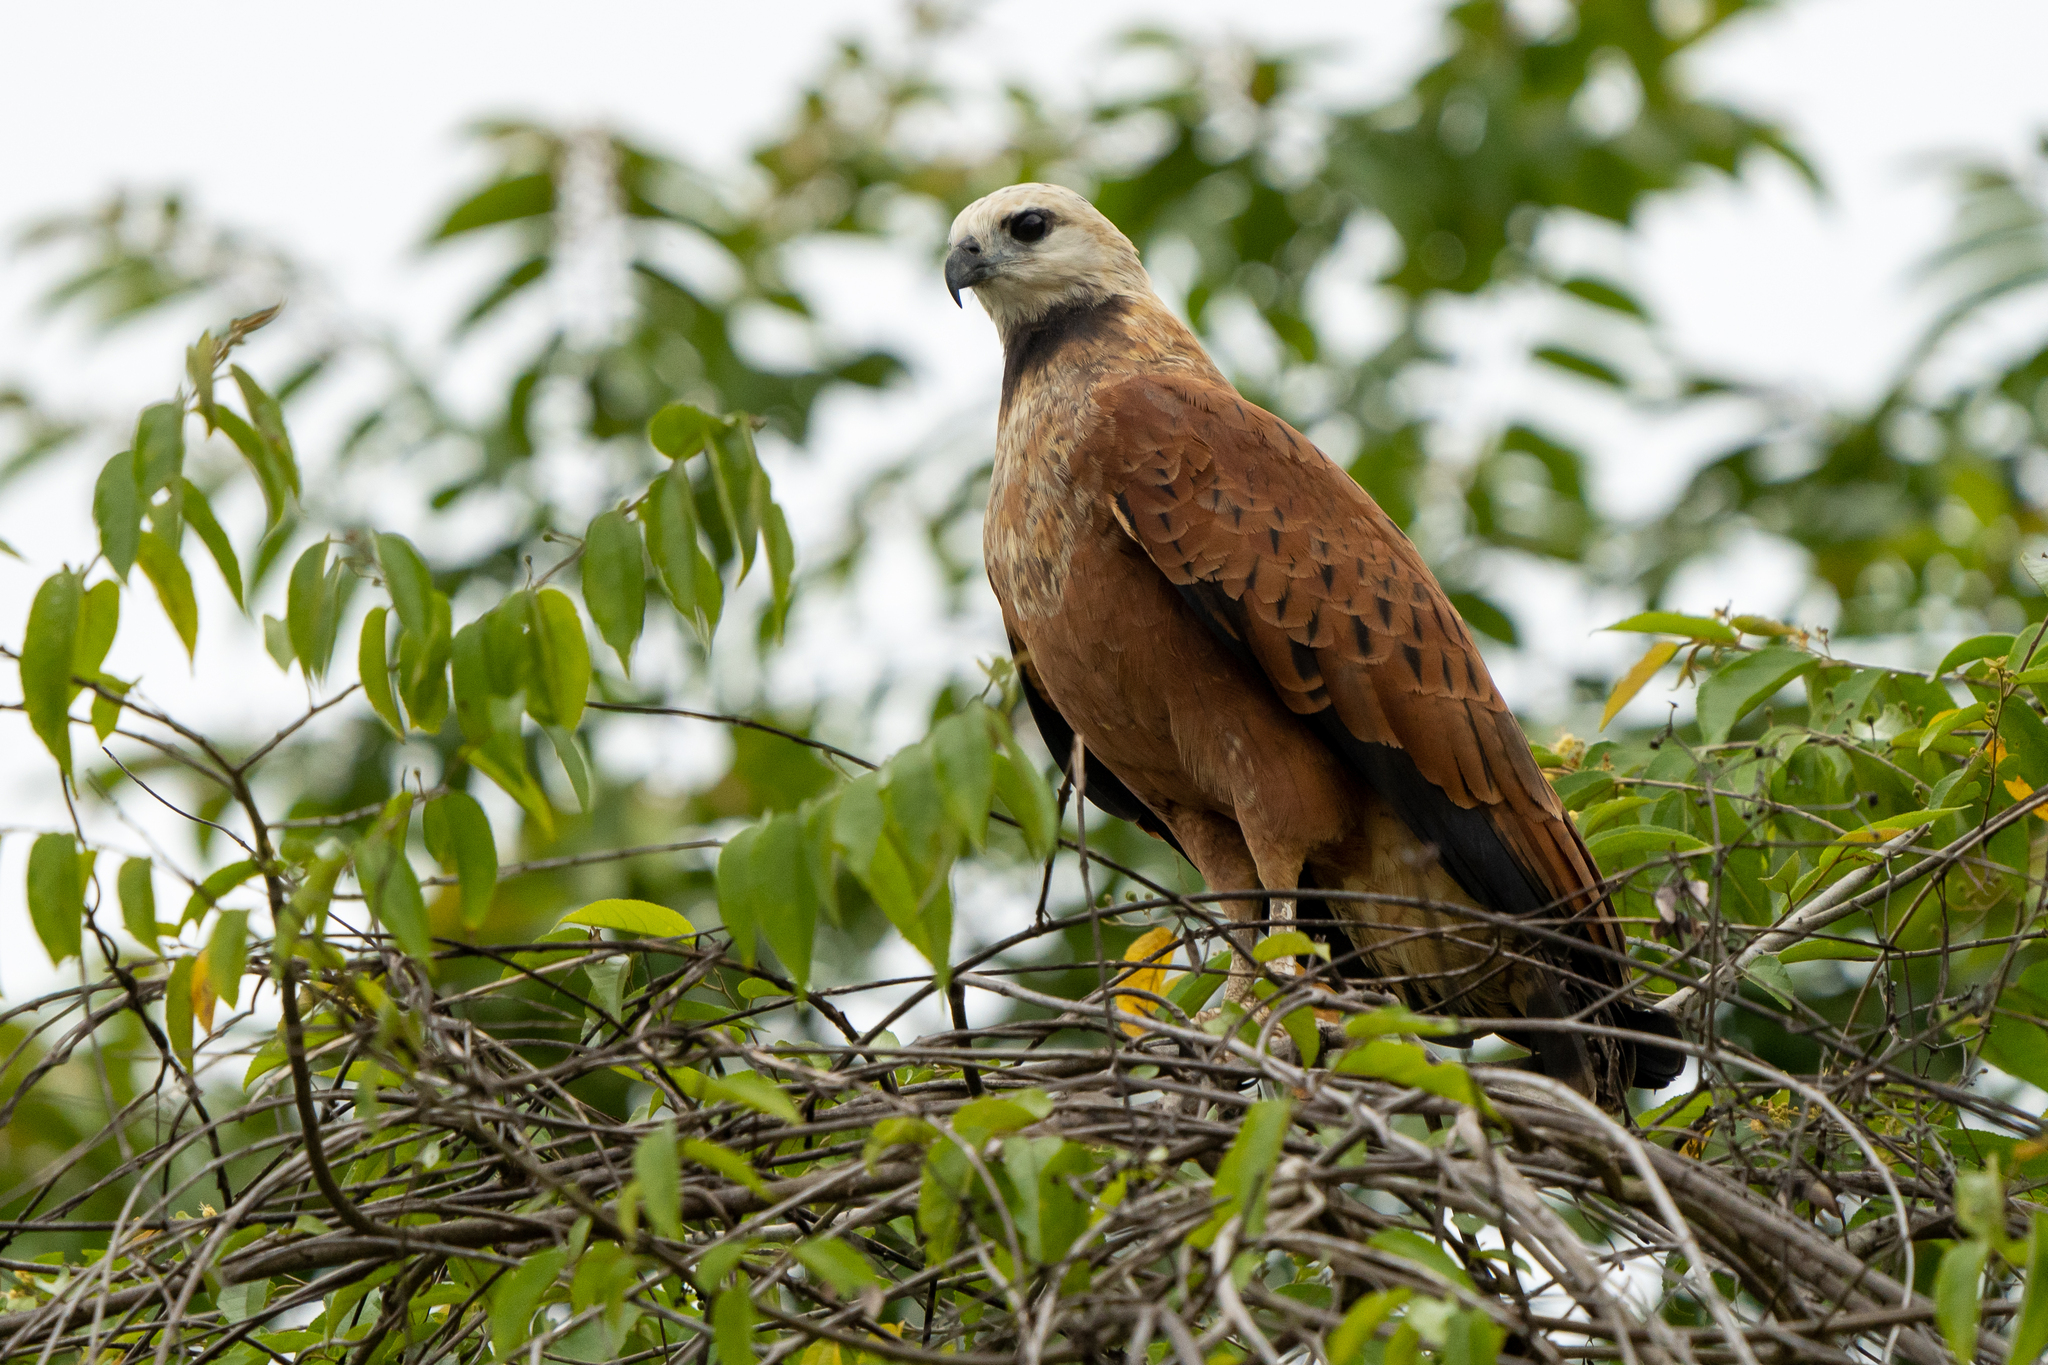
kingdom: Animalia
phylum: Chordata
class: Aves
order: Accipitriformes
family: Accipitridae
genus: Busarellus
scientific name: Busarellus nigricollis
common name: Black-collared hawk
